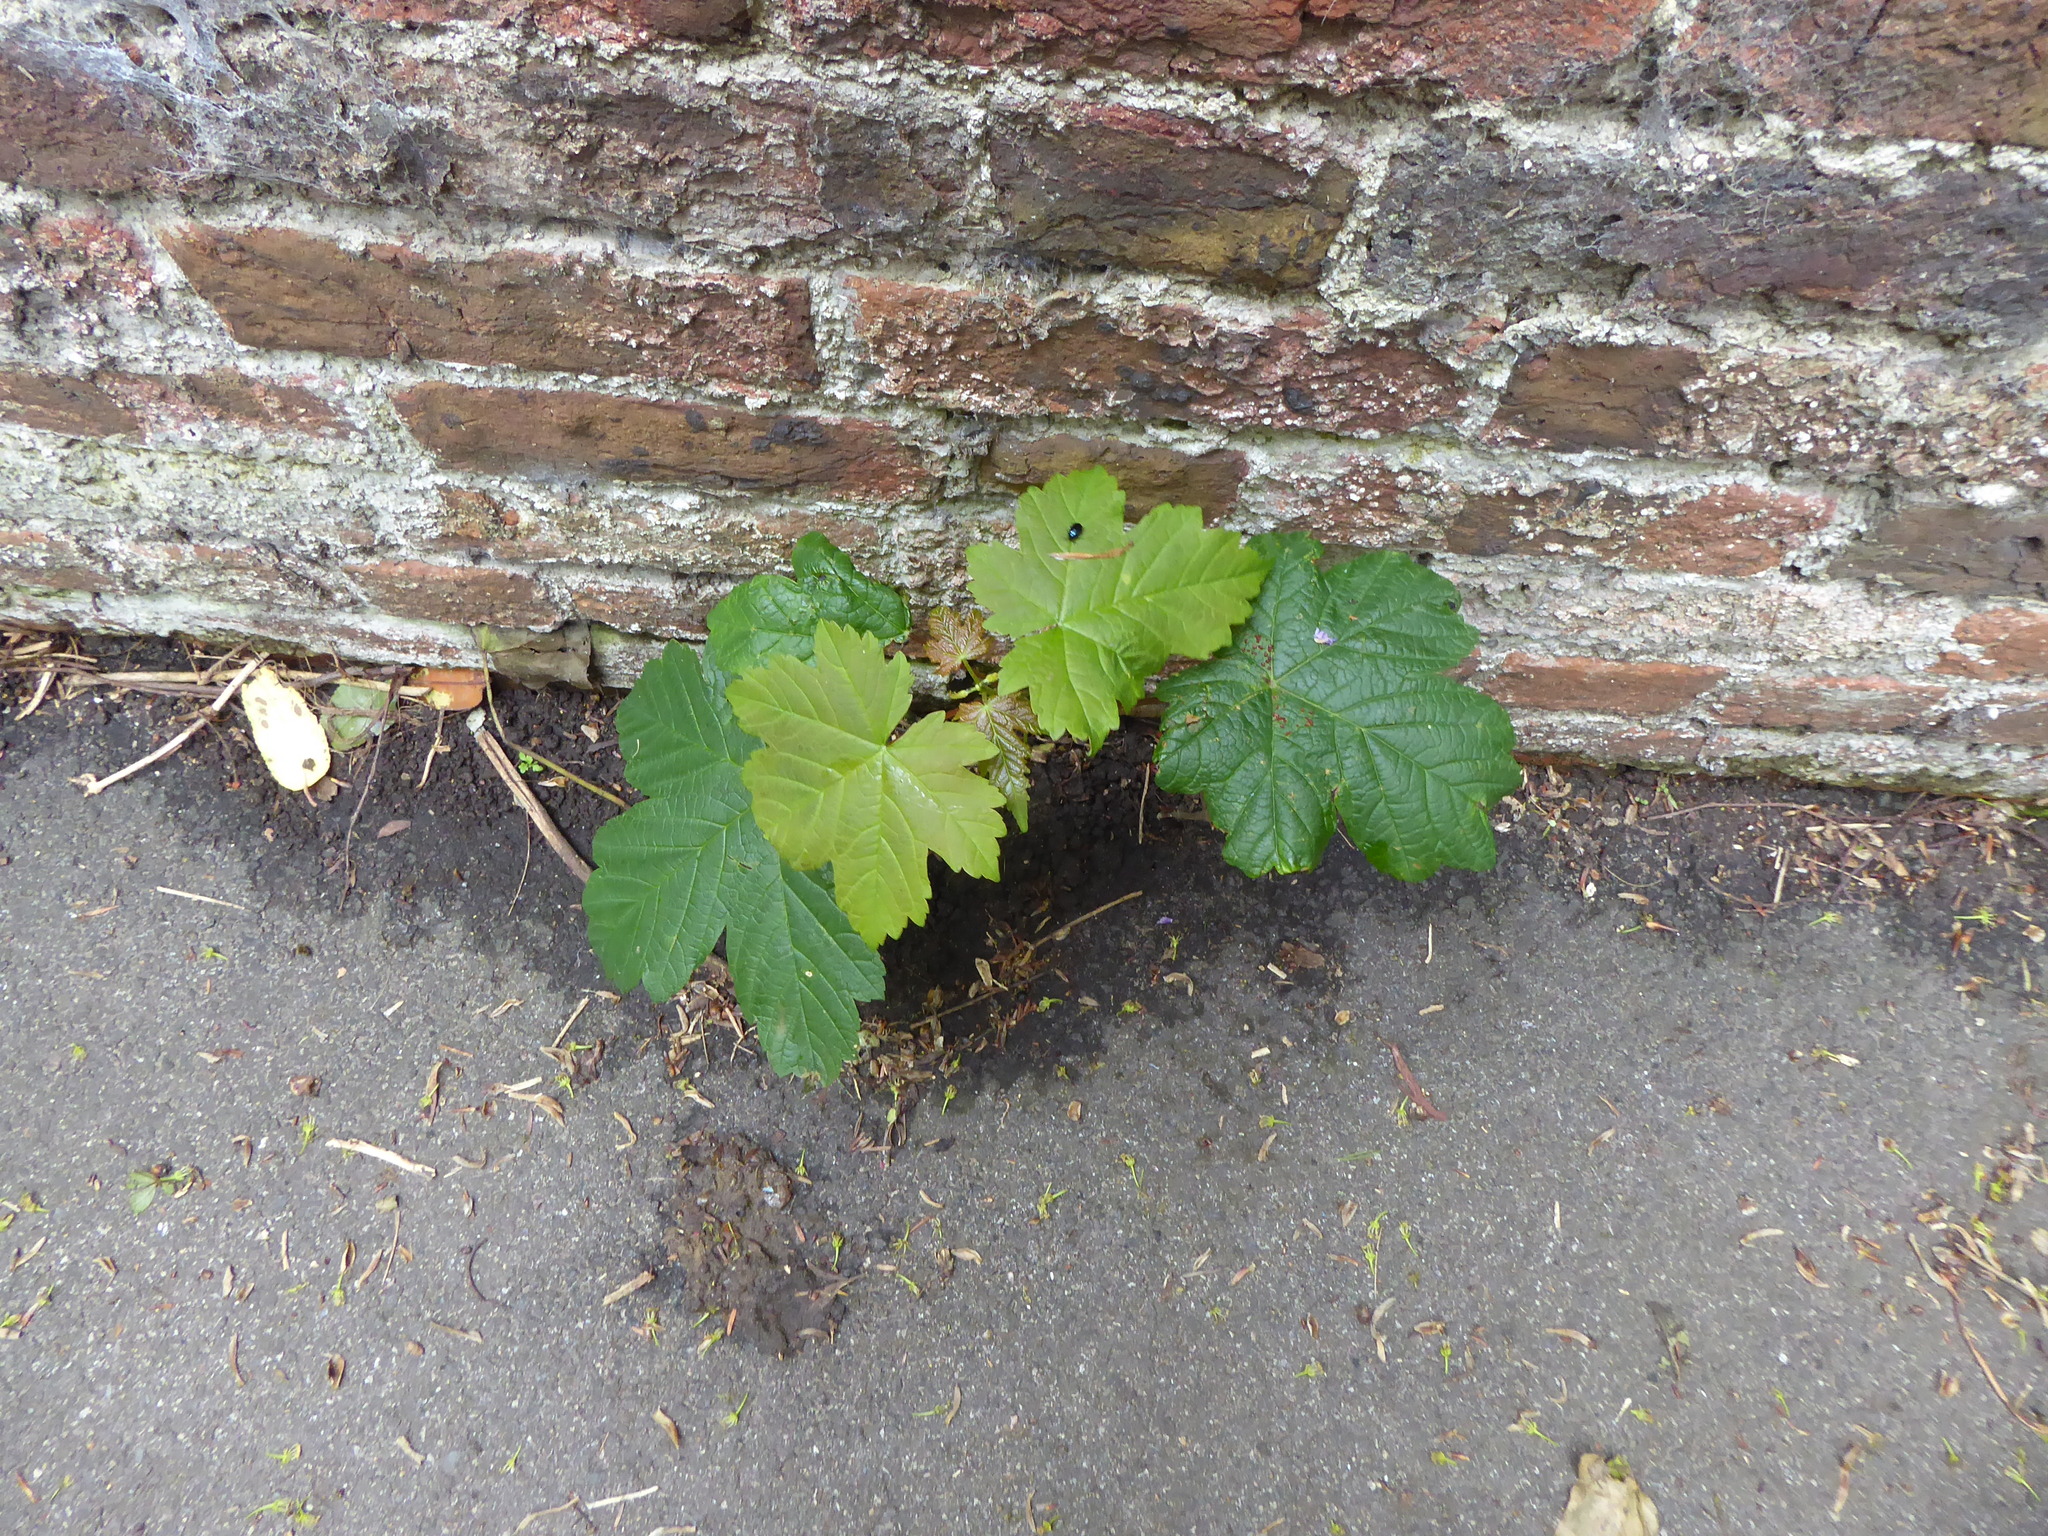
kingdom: Plantae
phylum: Tracheophyta
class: Magnoliopsida
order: Sapindales
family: Sapindaceae
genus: Acer
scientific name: Acer pseudoplatanus
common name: Sycamore
